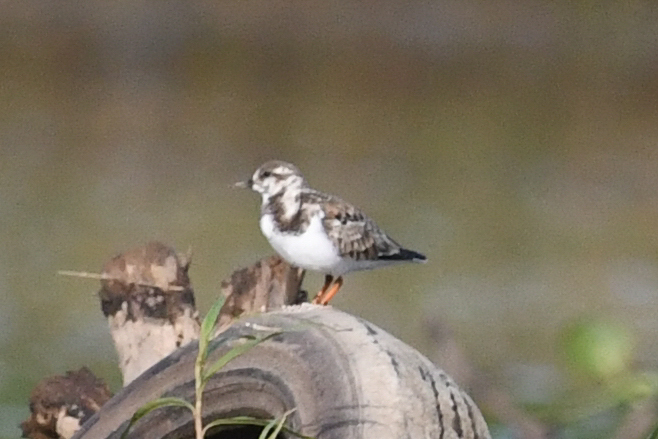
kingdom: Animalia
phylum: Chordata
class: Aves
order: Charadriiformes
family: Scolopacidae
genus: Arenaria
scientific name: Arenaria interpres
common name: Ruddy turnstone
